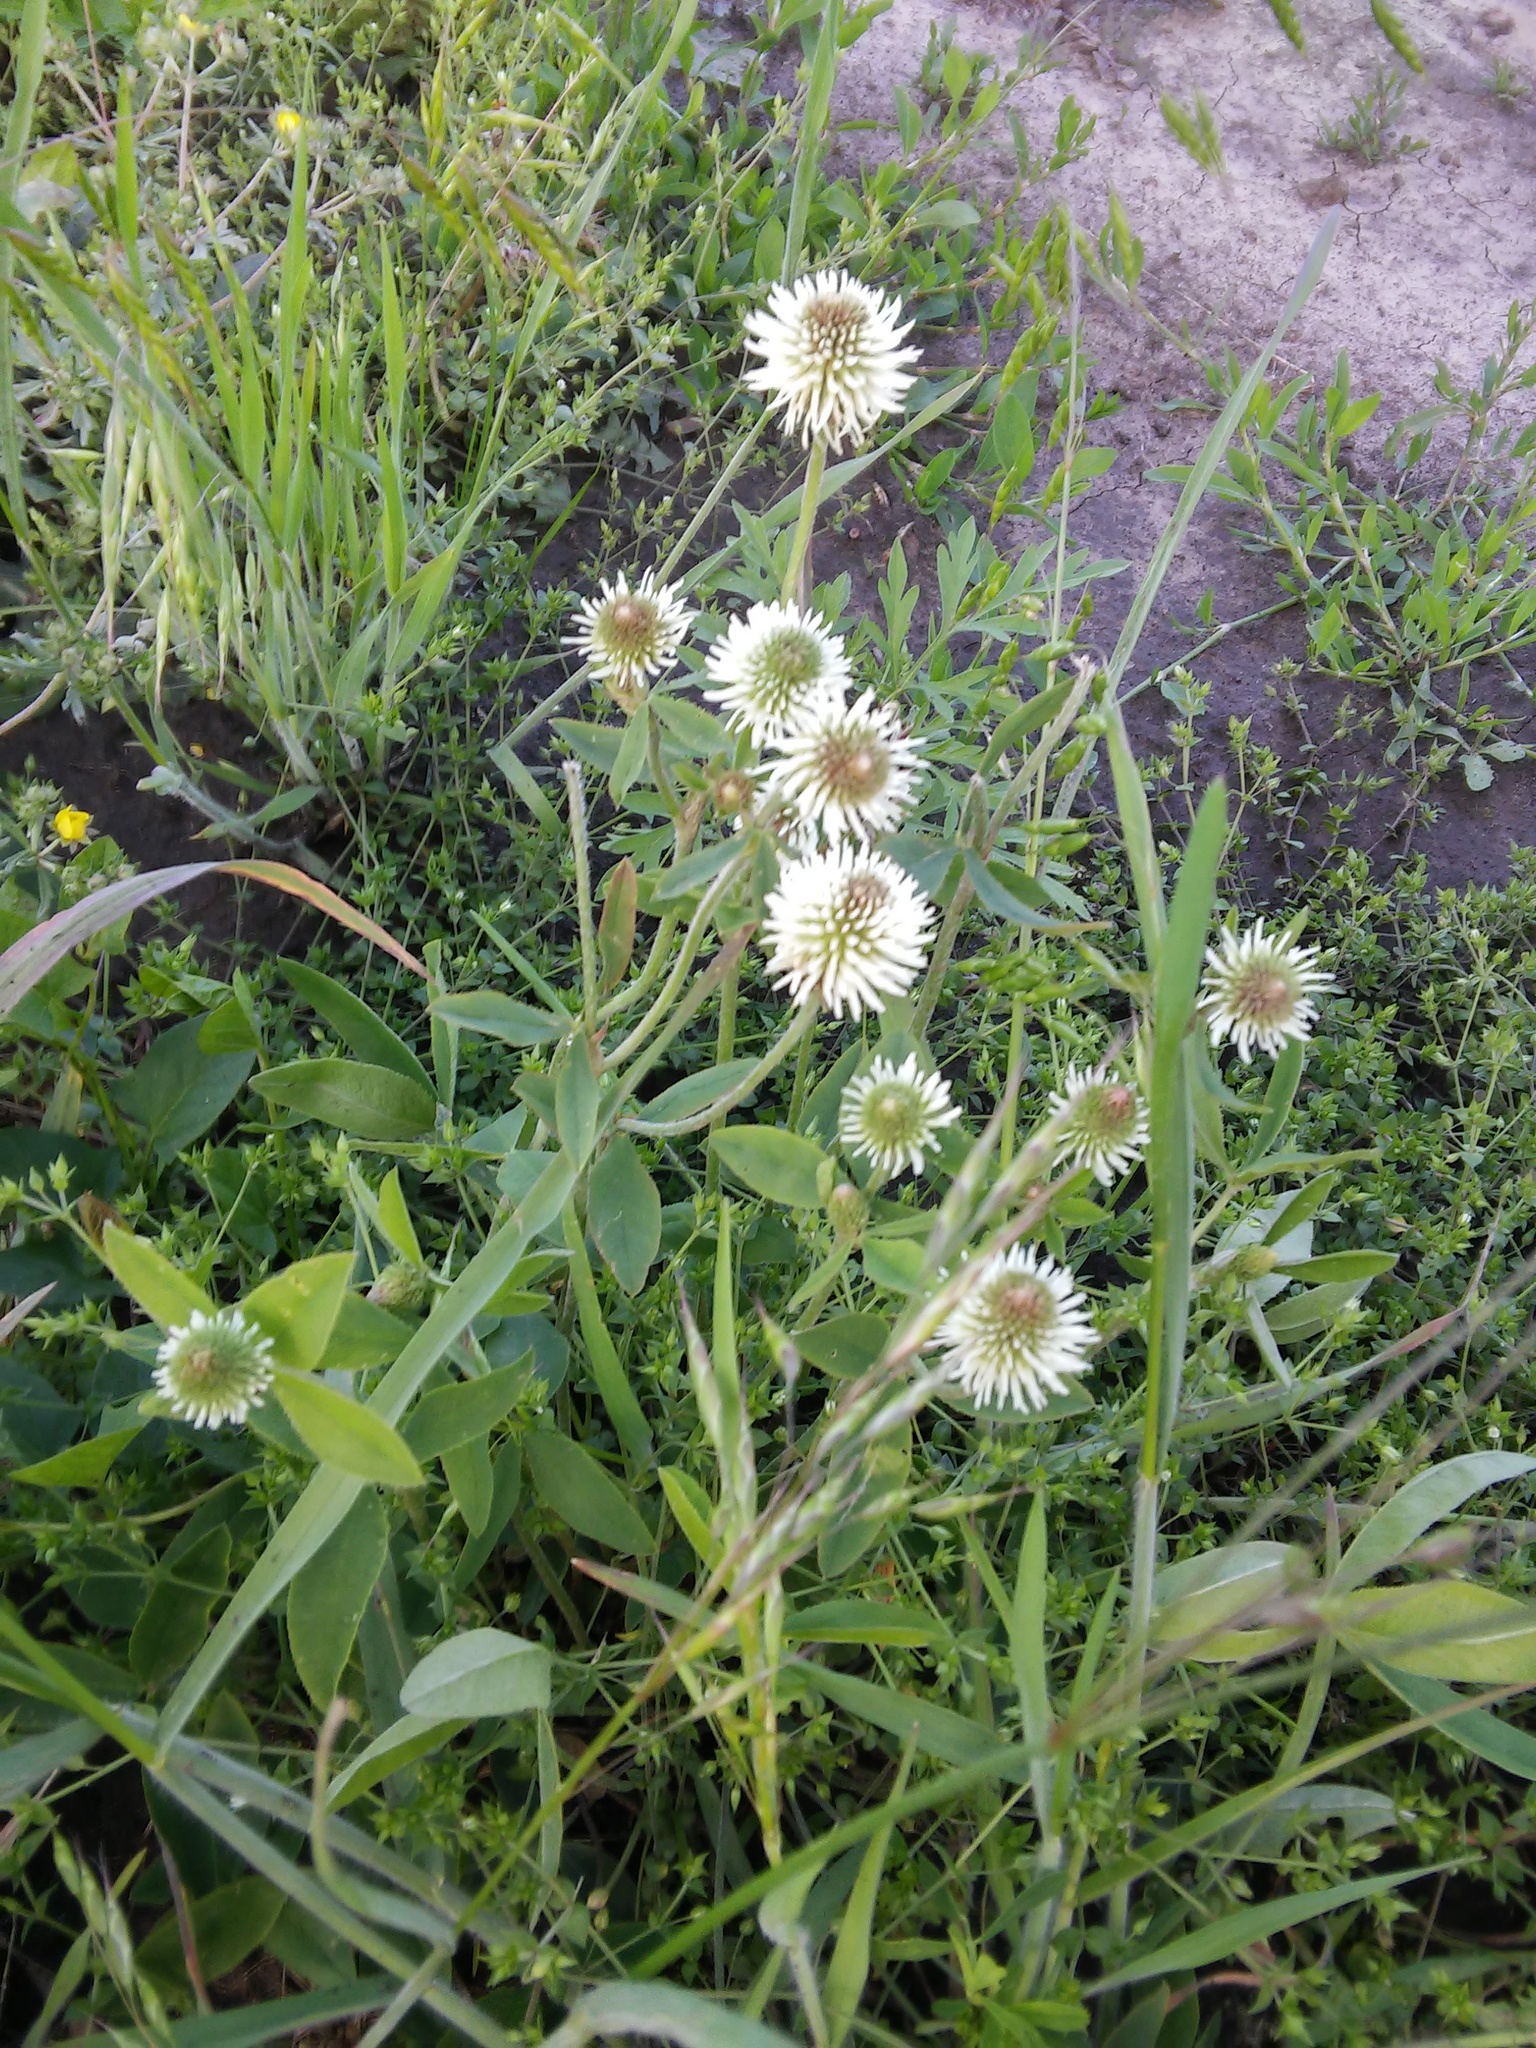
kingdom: Plantae
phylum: Tracheophyta
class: Magnoliopsida
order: Fabales
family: Fabaceae
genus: Trifolium
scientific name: Trifolium montanum
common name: Mountain clover
